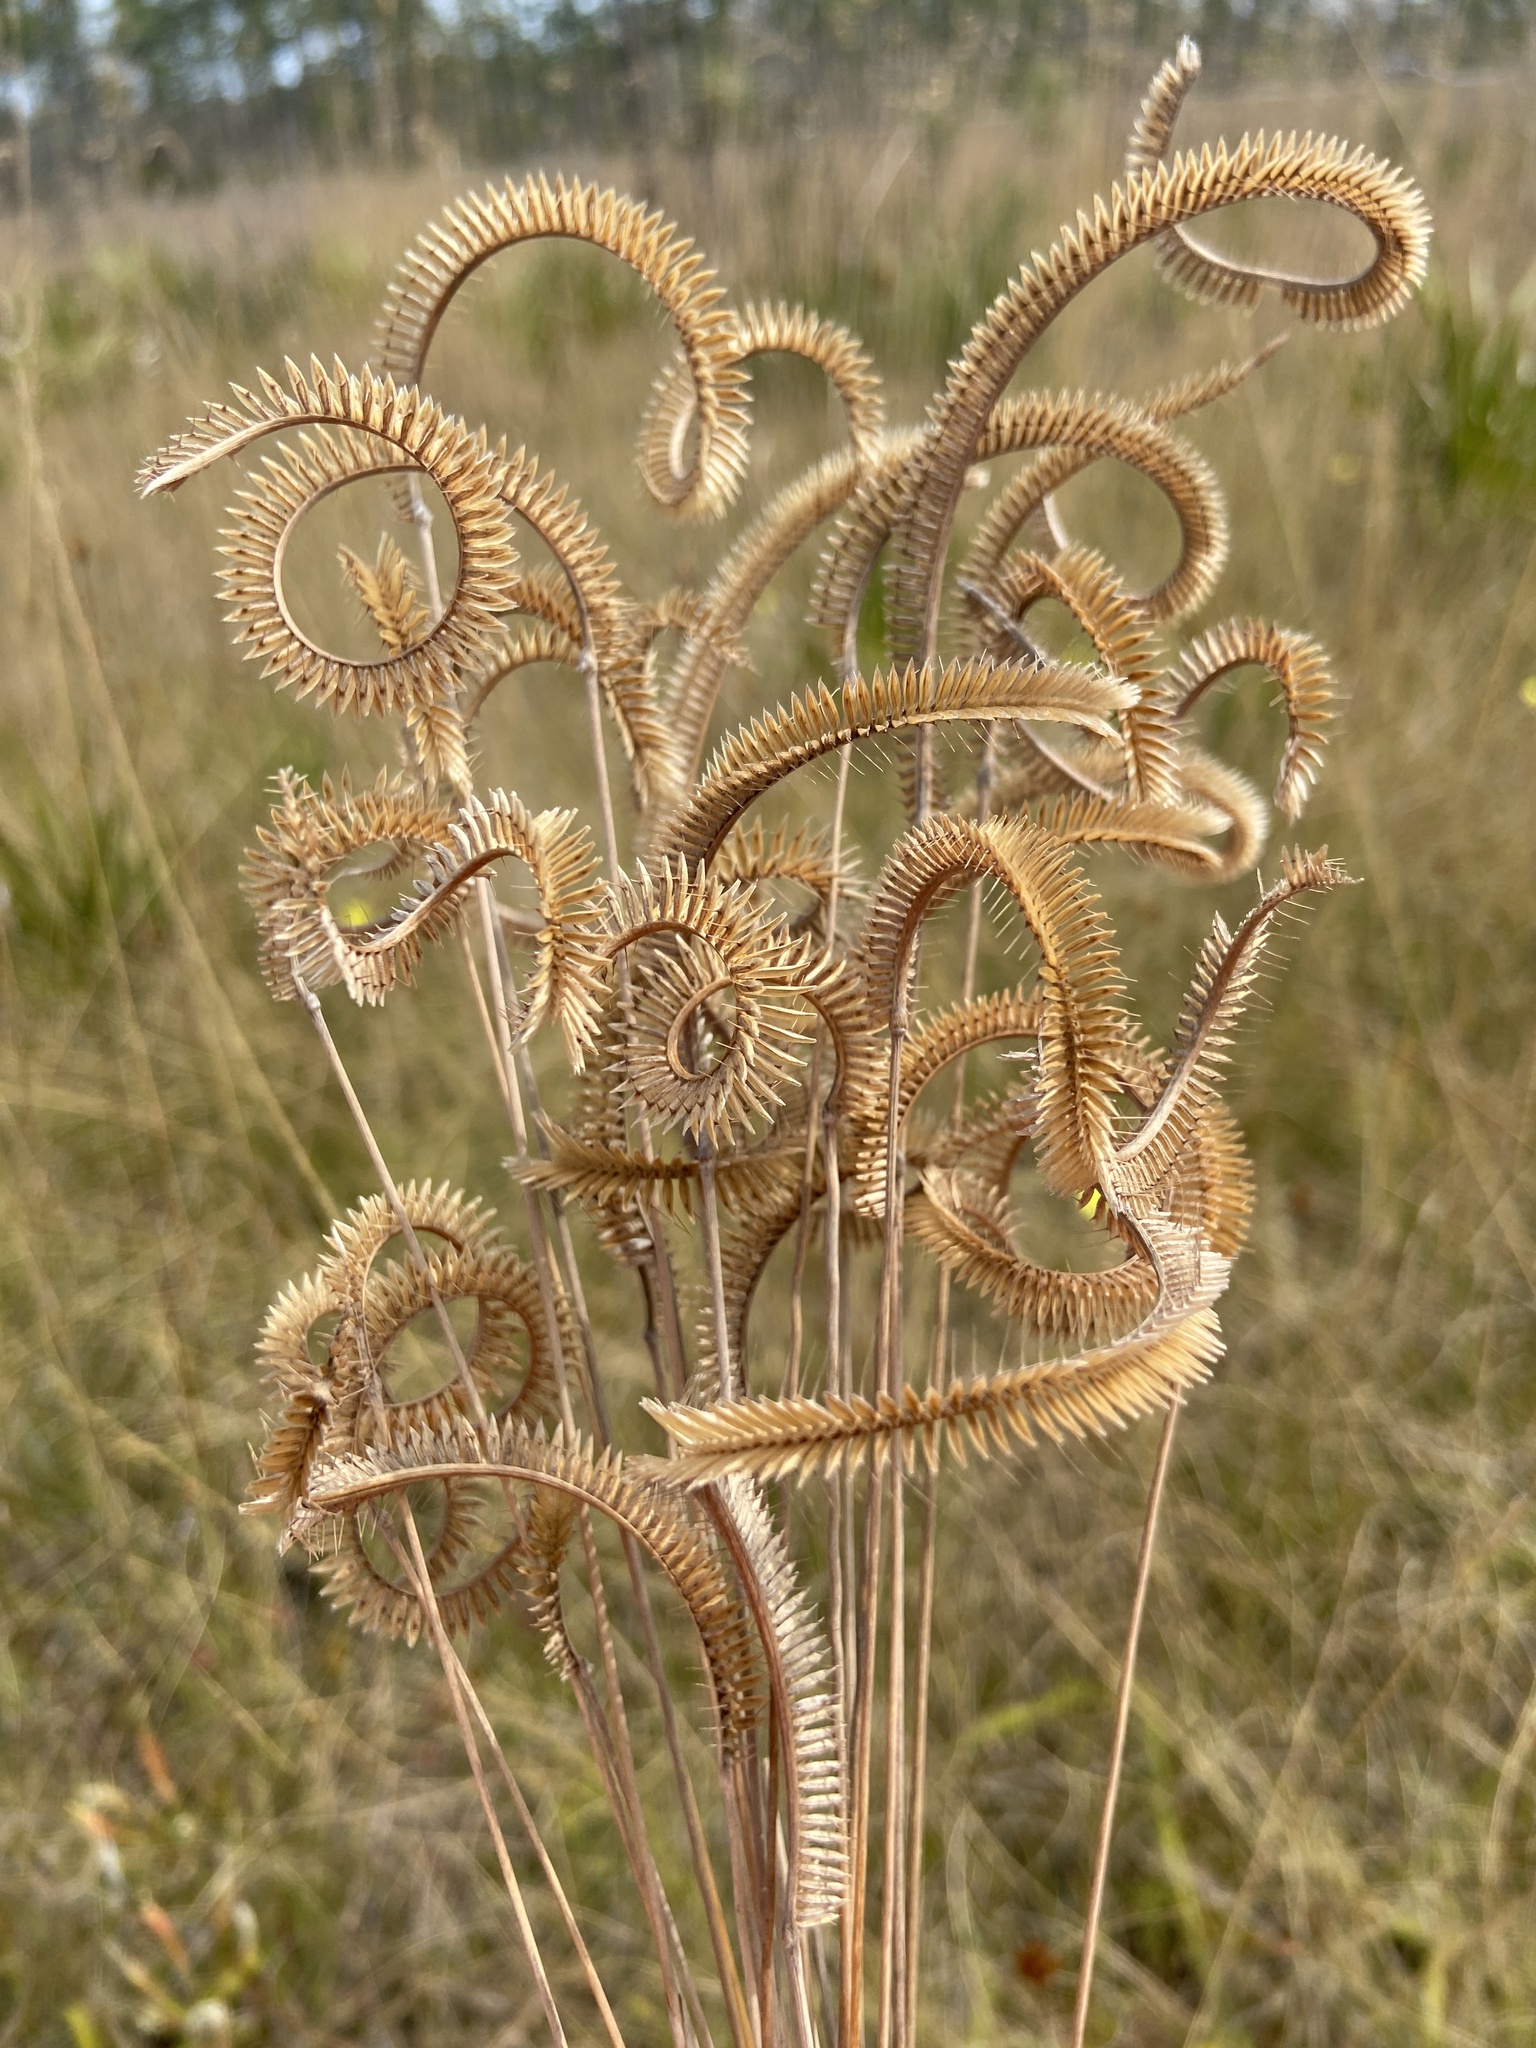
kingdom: Plantae
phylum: Tracheophyta
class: Liliopsida
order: Poales
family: Poaceae
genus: Ctenium
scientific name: Ctenium aromaticum
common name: Toothache grass
